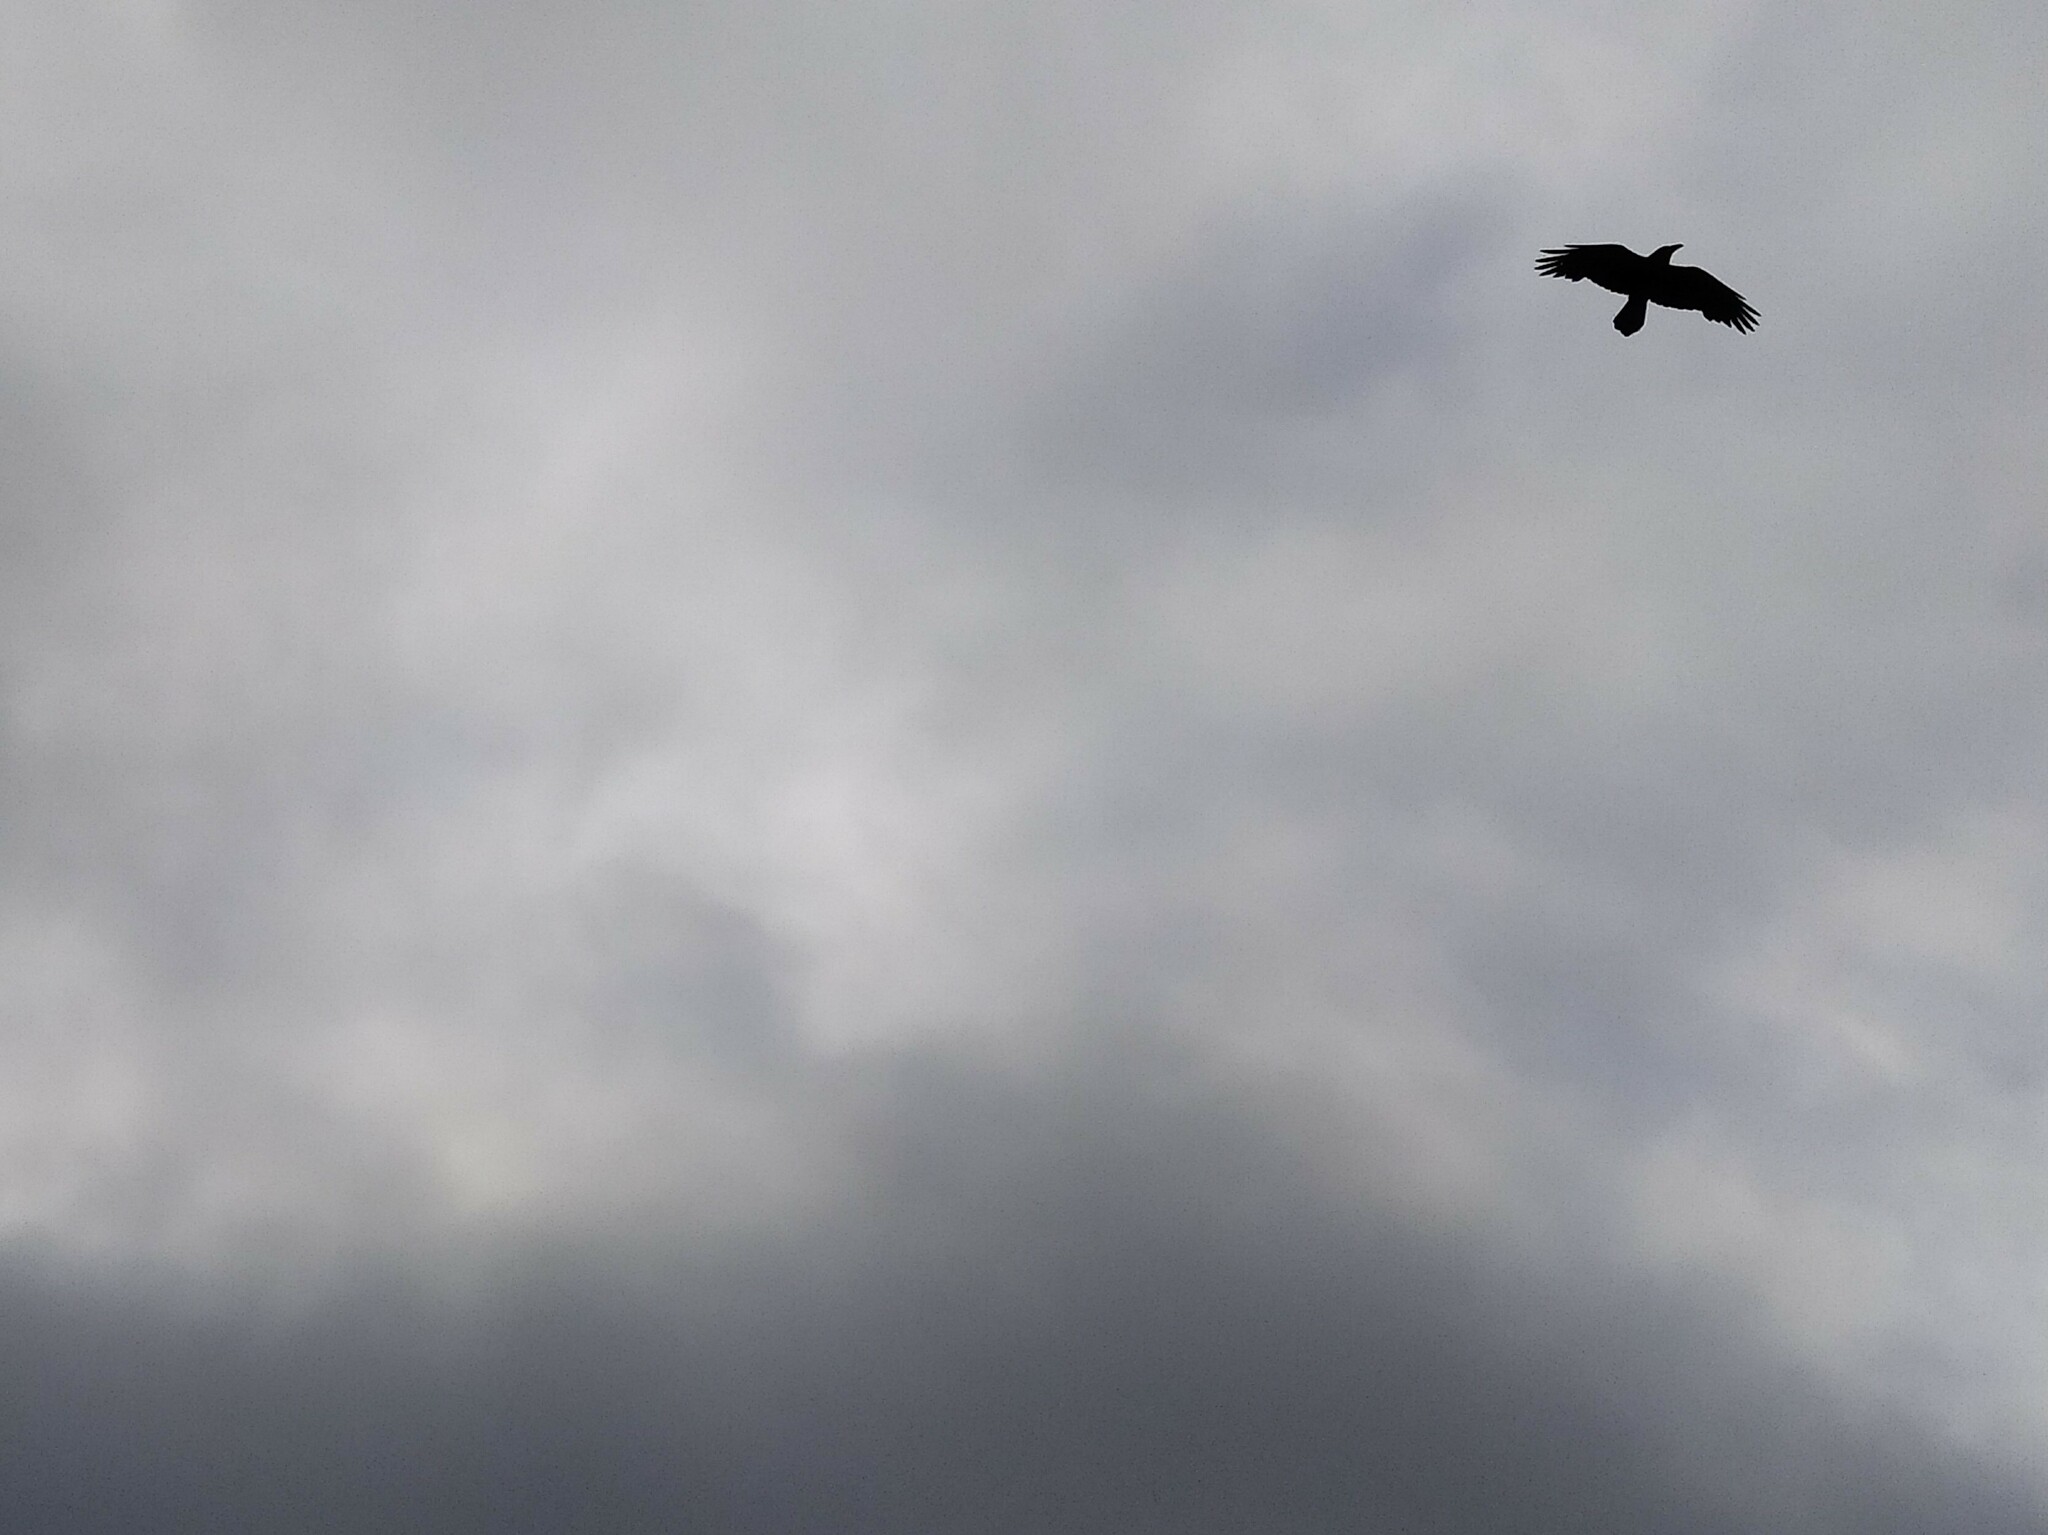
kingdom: Animalia
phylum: Chordata
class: Aves
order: Passeriformes
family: Corvidae
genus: Corvus
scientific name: Corvus corax
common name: Common raven
